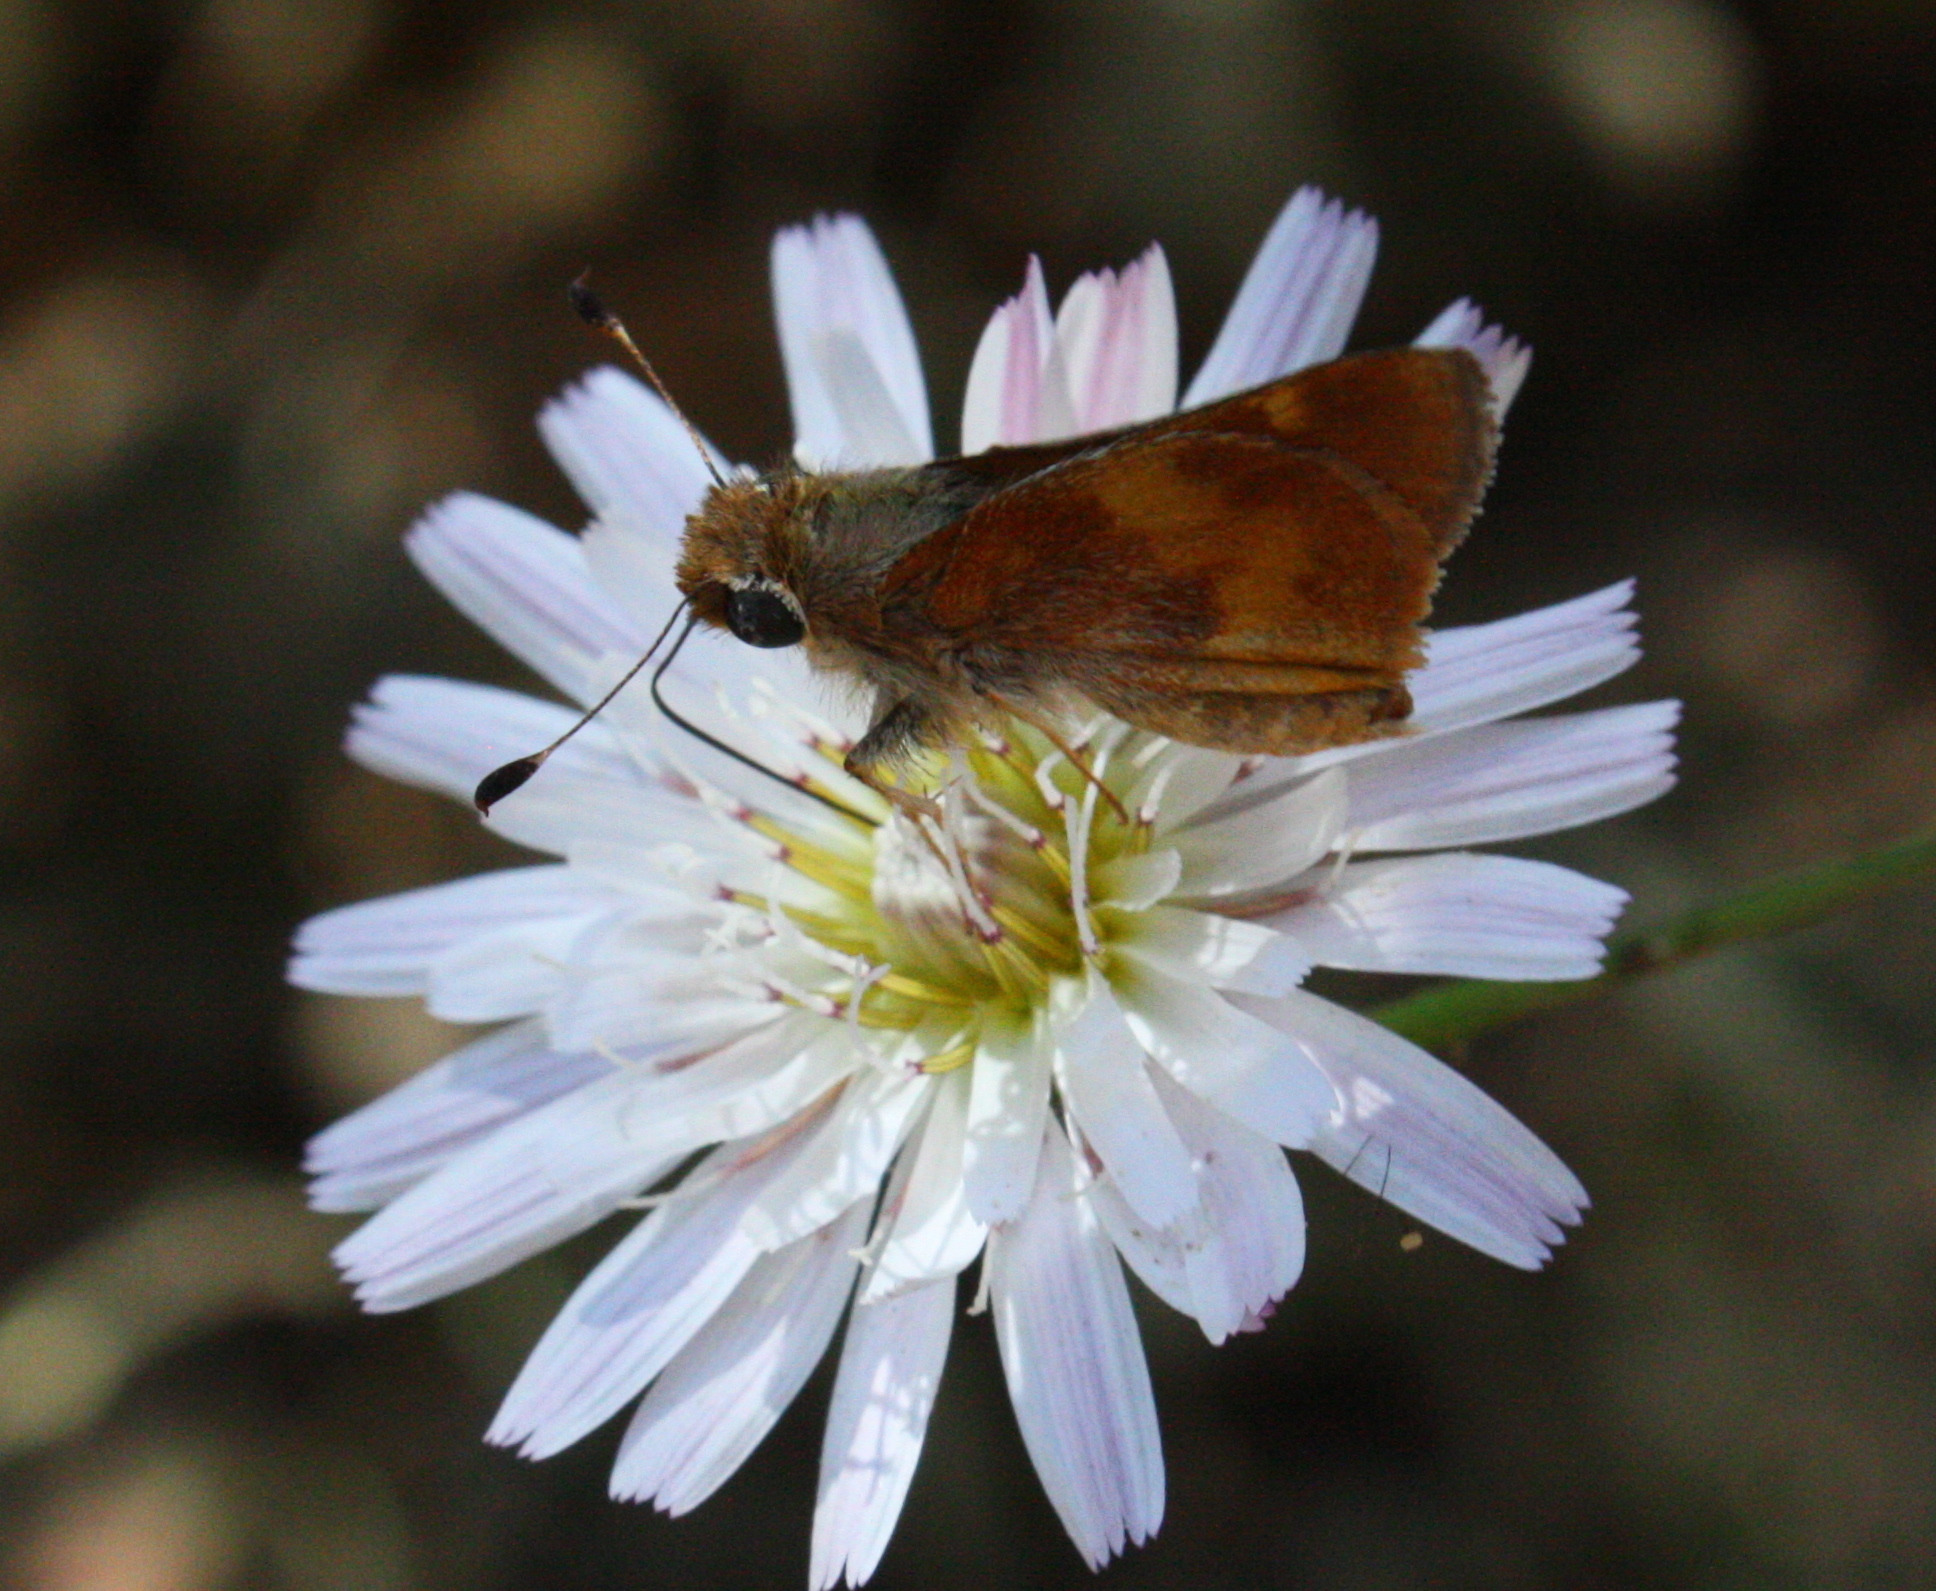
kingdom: Animalia
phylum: Arthropoda
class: Insecta
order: Lepidoptera
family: Hesperiidae
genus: Lon
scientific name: Lon melane
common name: Umber skipper
